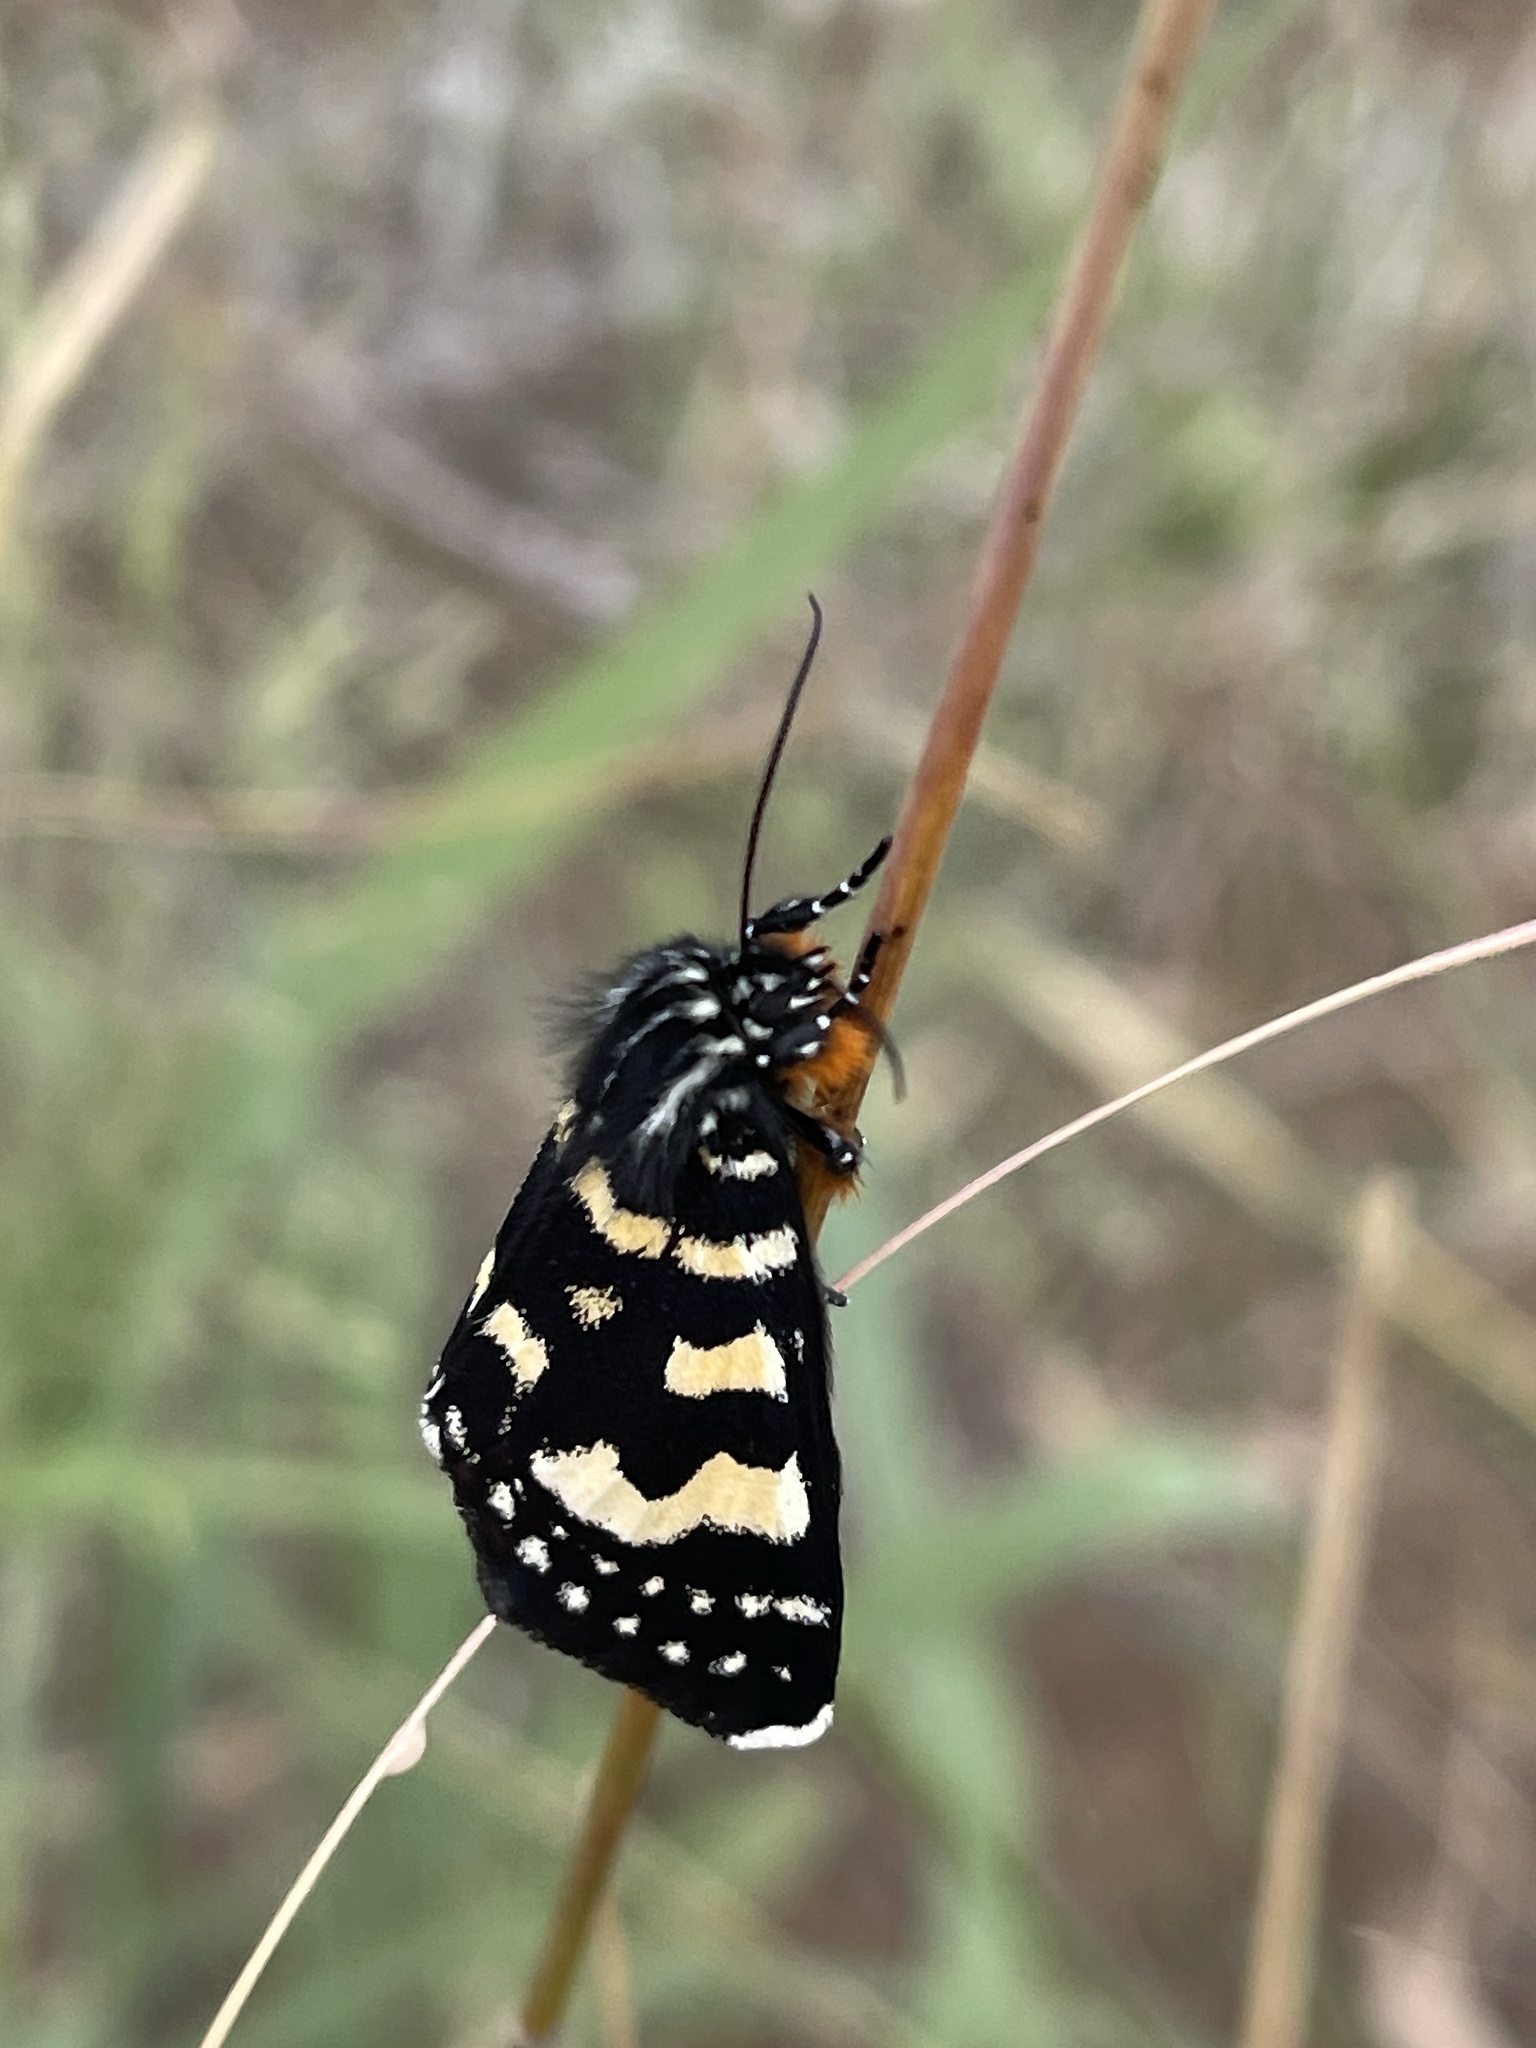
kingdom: Animalia
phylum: Arthropoda
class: Insecta
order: Lepidoptera
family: Noctuidae
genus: Phalaenoides
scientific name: Phalaenoides tristifica
